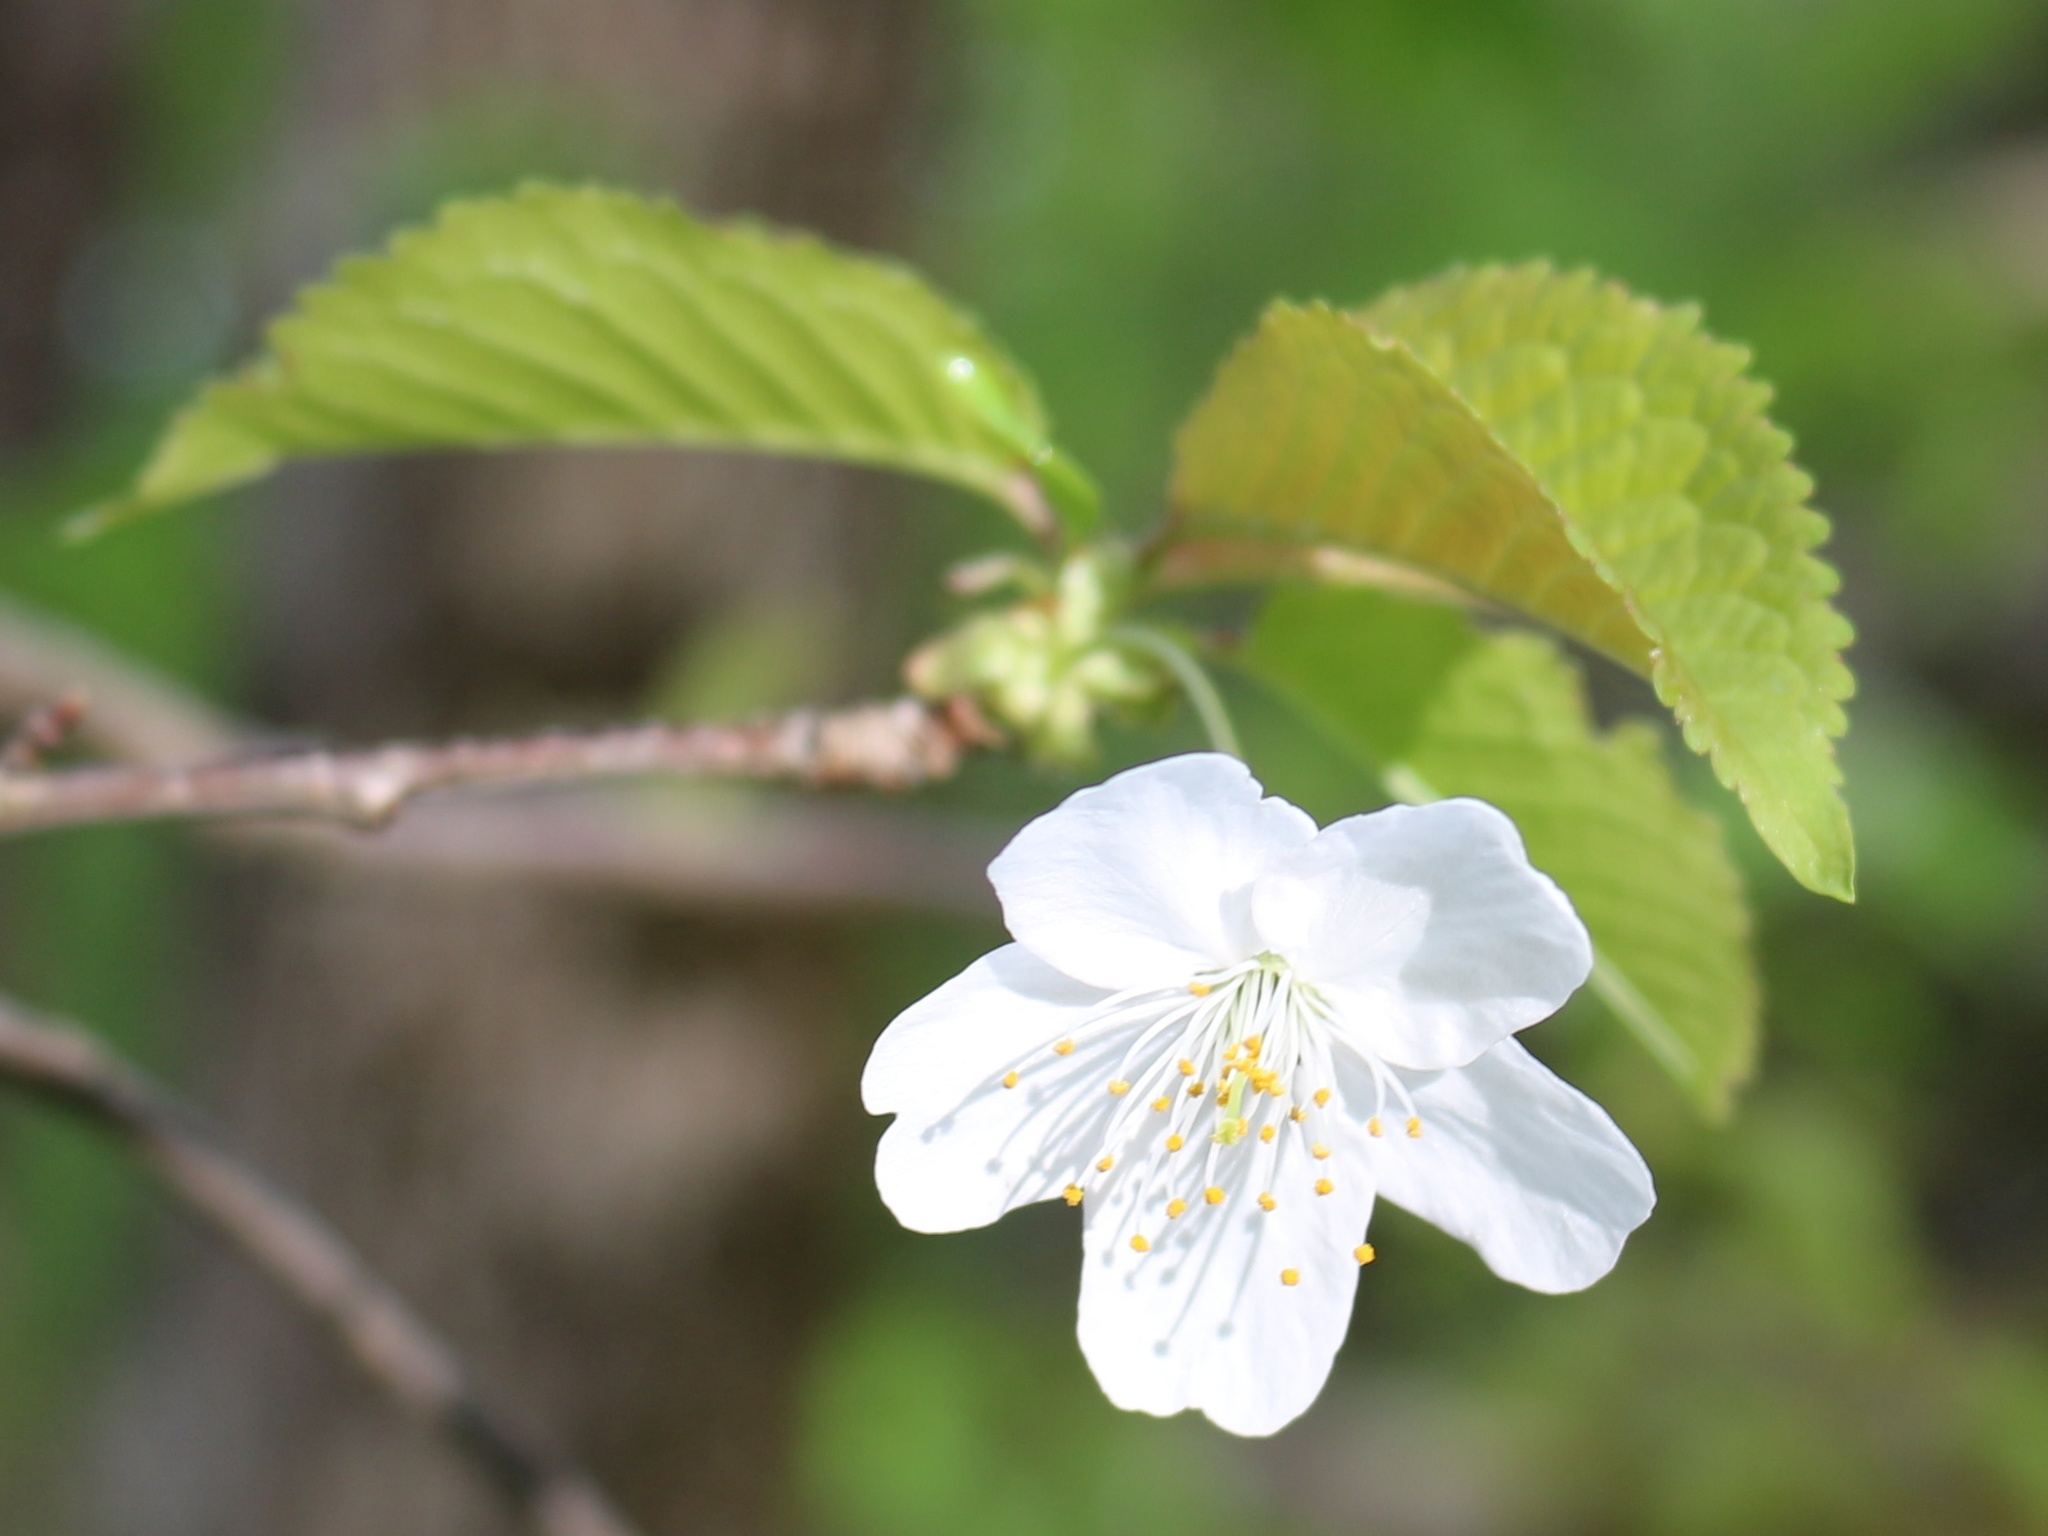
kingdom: Plantae
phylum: Tracheophyta
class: Magnoliopsida
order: Rosales
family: Rosaceae
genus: Prunus
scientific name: Prunus avium
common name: Sweet cherry
